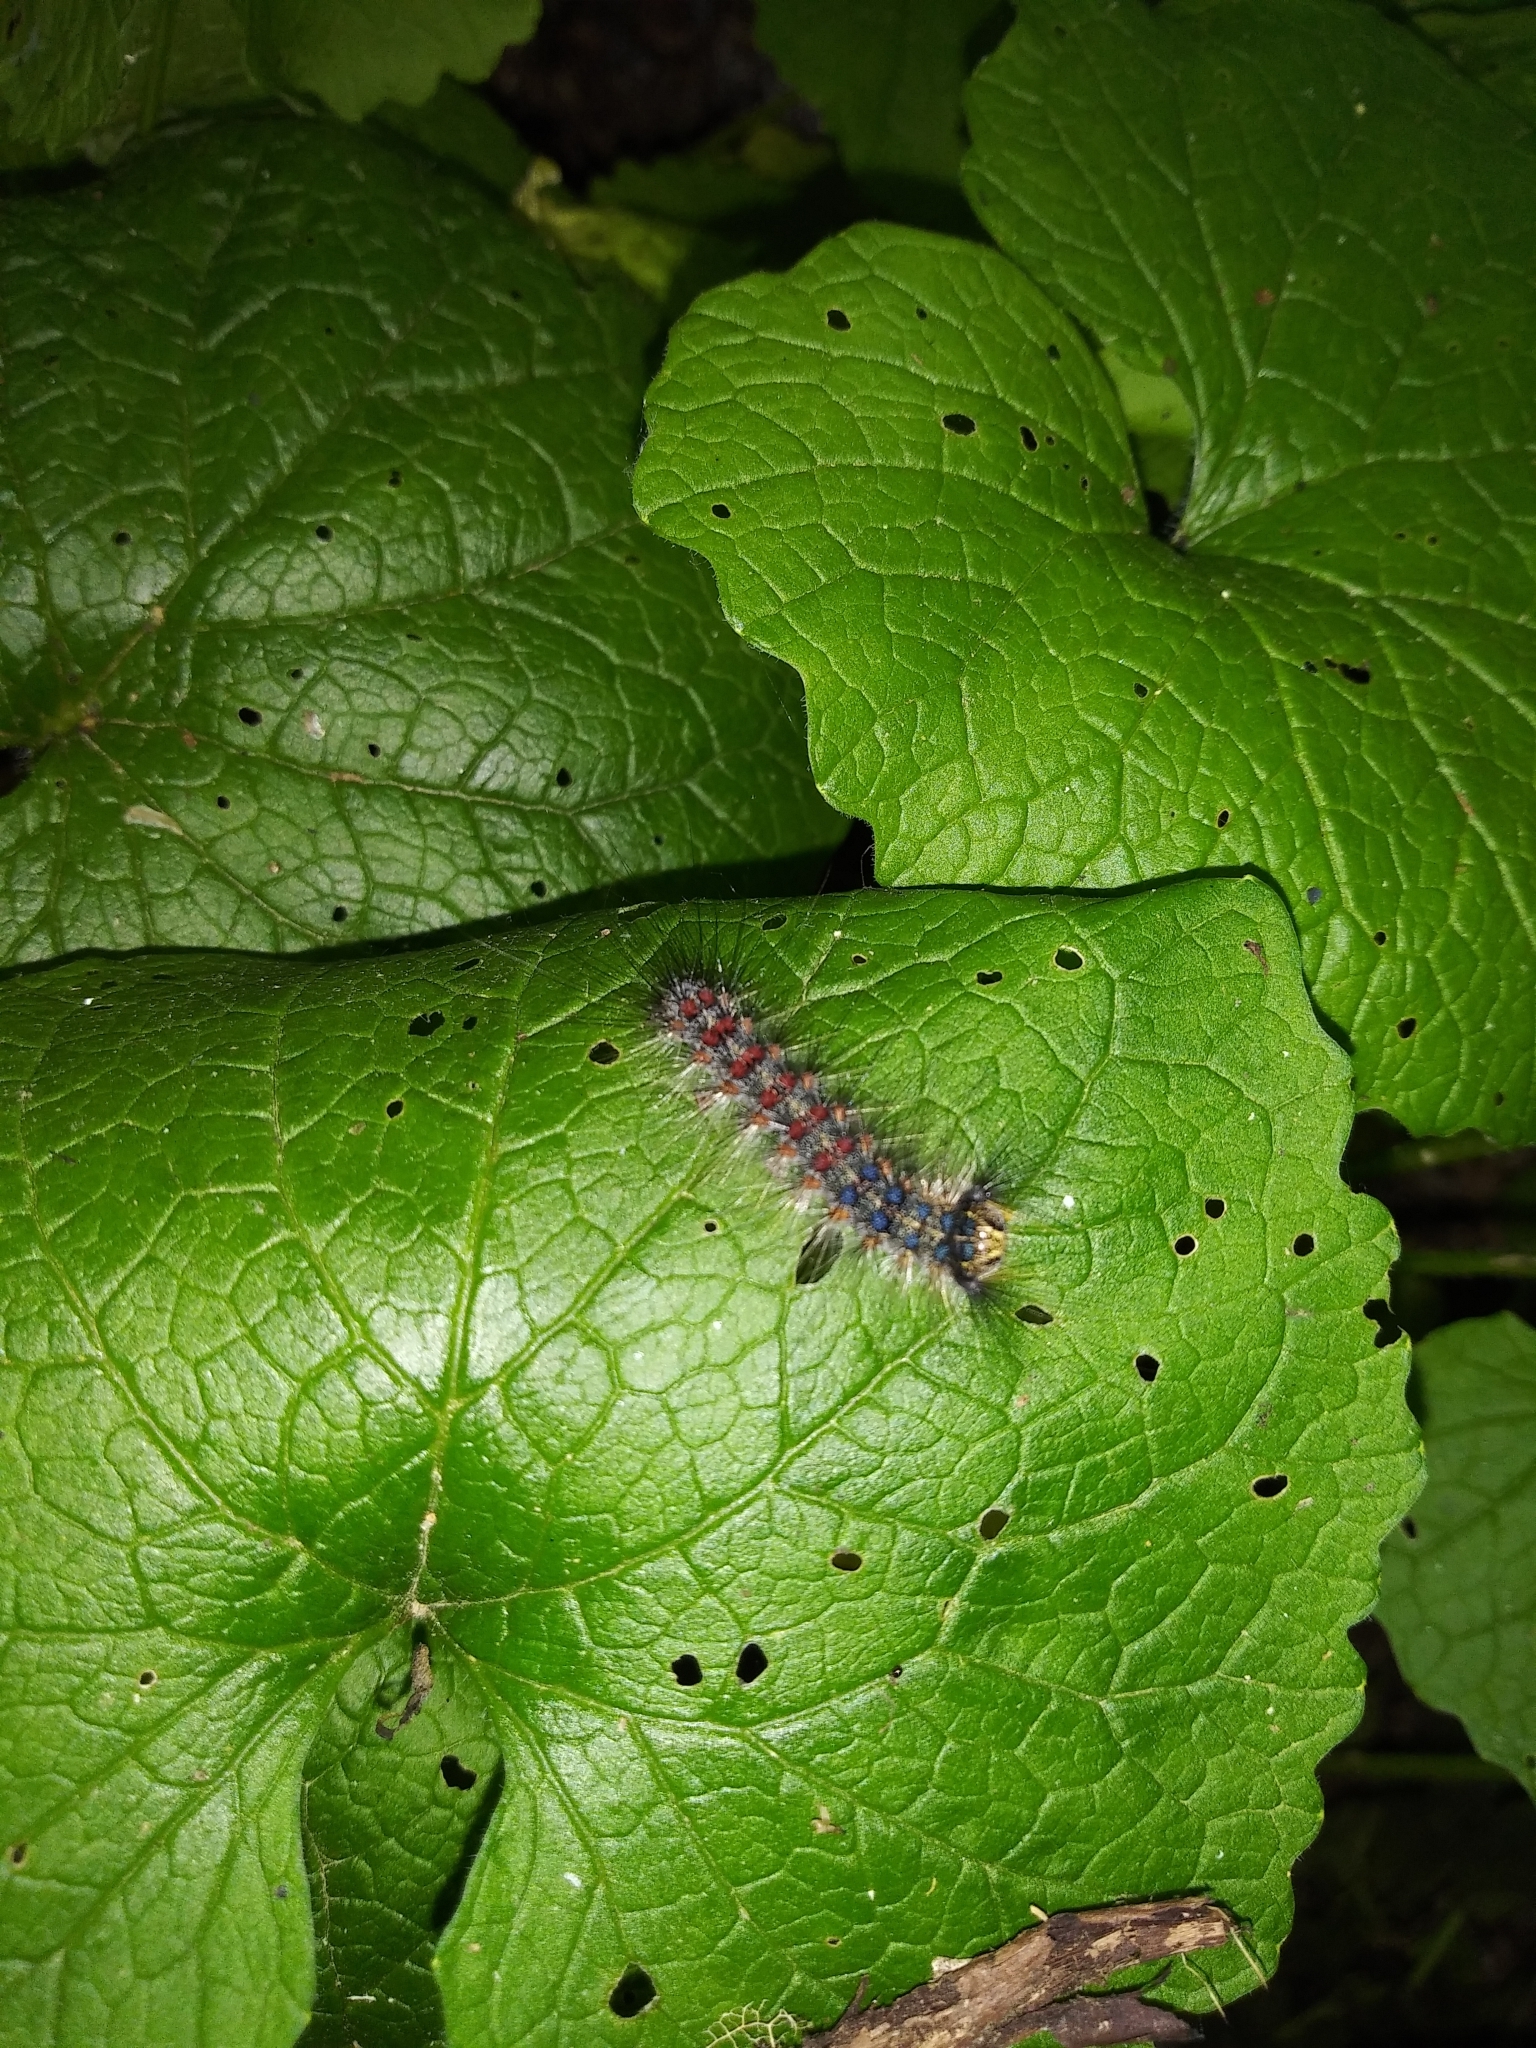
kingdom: Animalia
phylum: Arthropoda
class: Insecta
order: Lepidoptera
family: Erebidae
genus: Lymantria
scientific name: Lymantria dispar
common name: Gypsy moth
